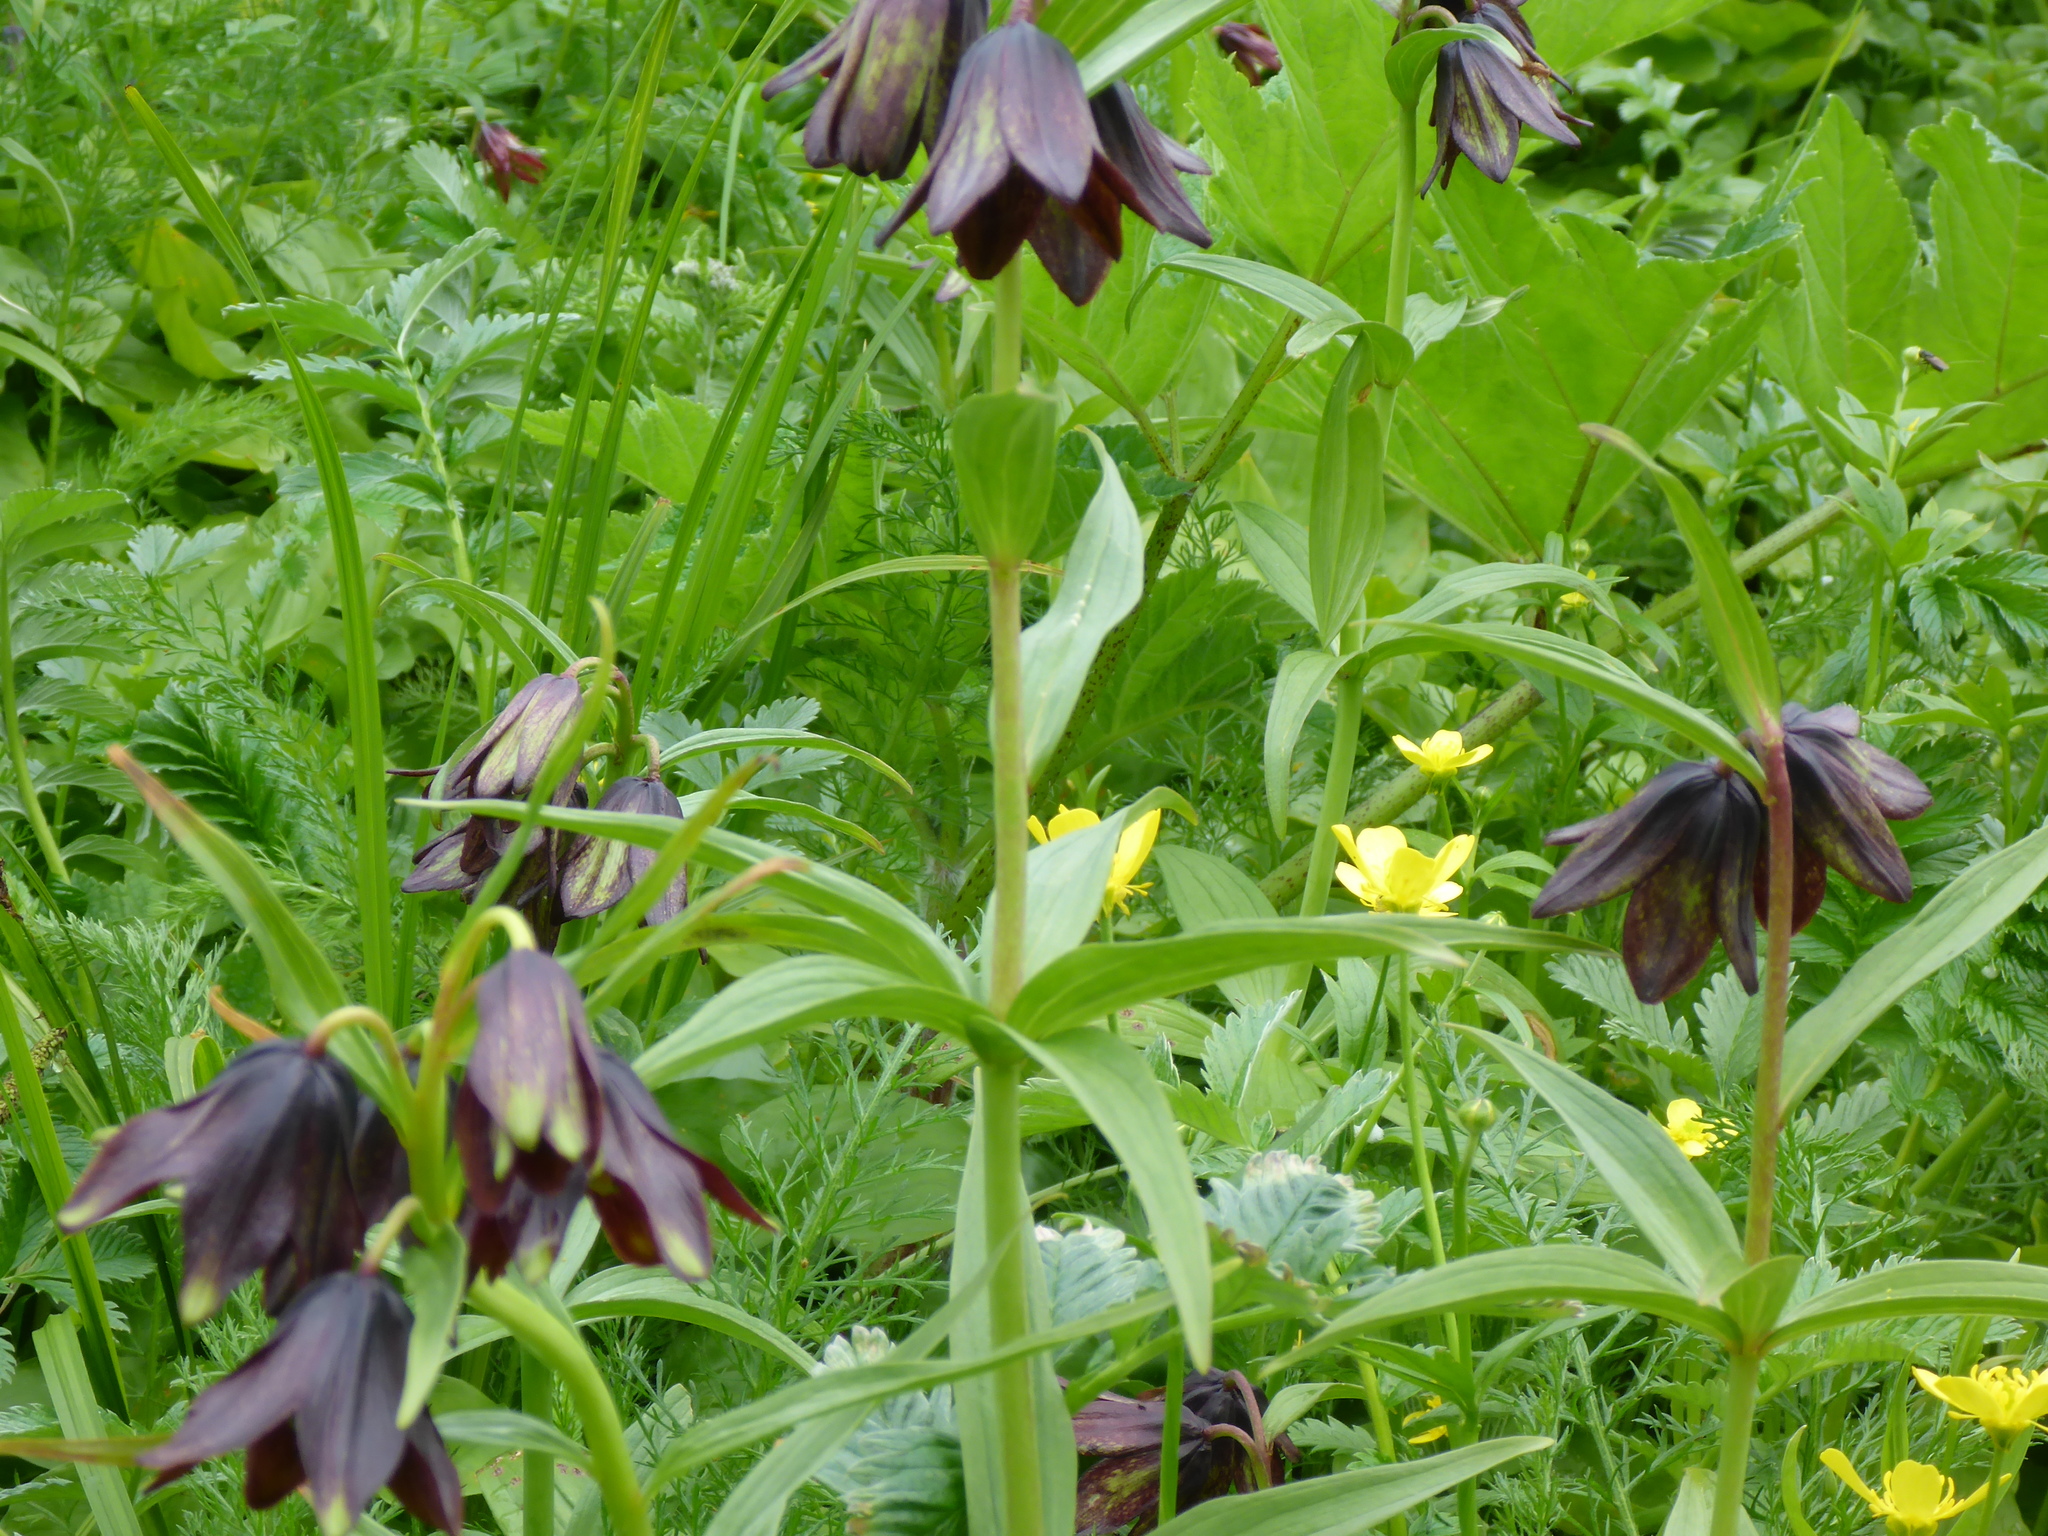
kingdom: Plantae
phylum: Tracheophyta
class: Liliopsida
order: Liliales
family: Liliaceae
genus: Fritillaria
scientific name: Fritillaria camschatcensis
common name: Kamchatka fritillary
